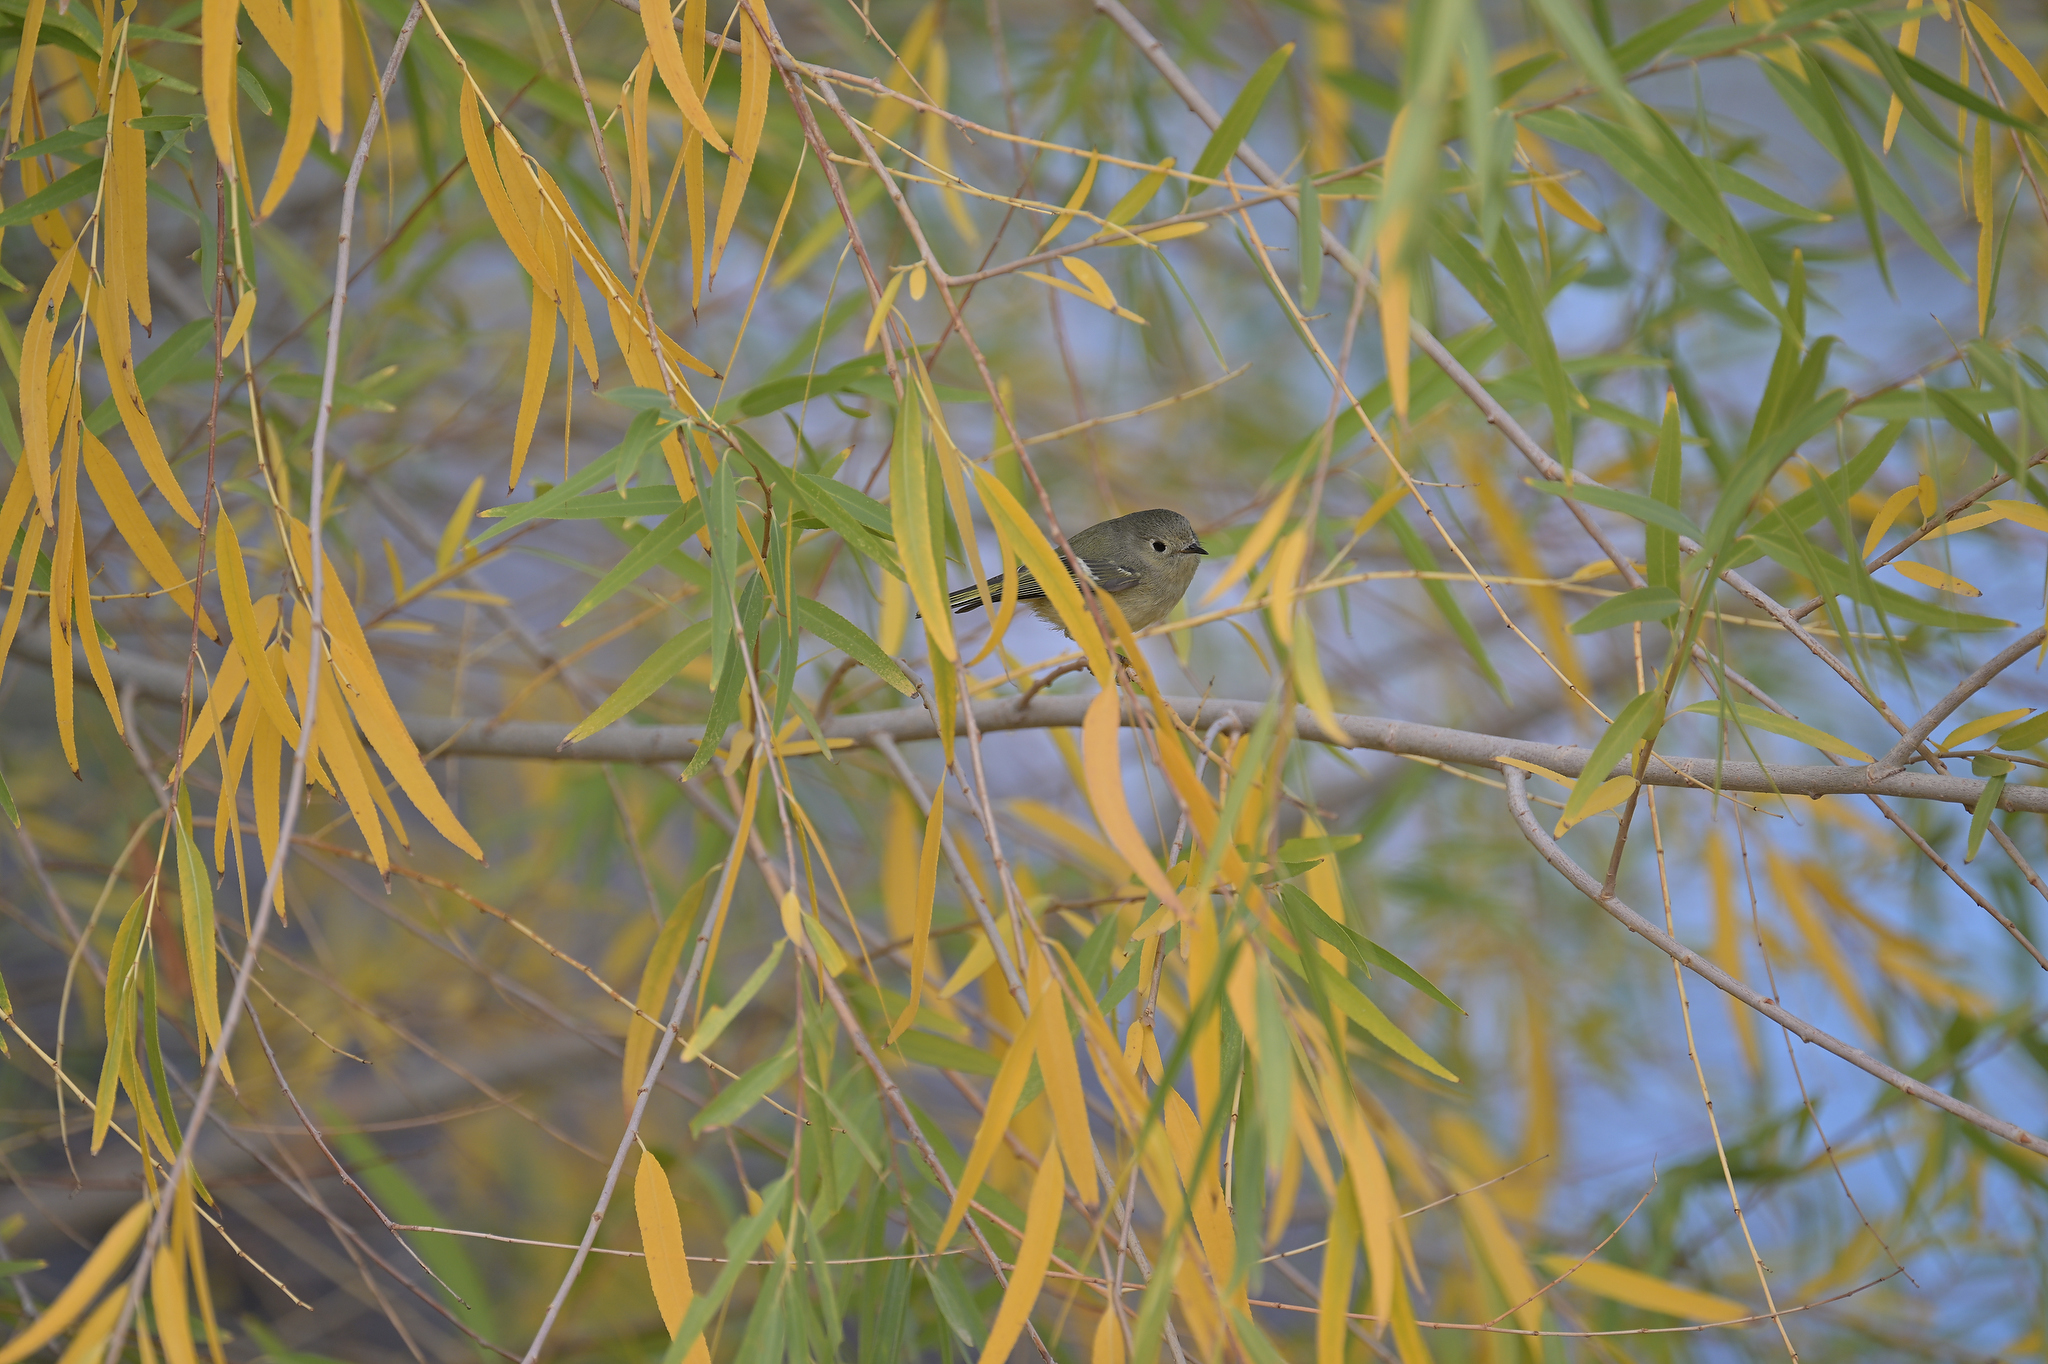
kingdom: Animalia
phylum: Chordata
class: Aves
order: Passeriformes
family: Regulidae
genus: Regulus
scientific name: Regulus calendula
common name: Ruby-crowned kinglet
